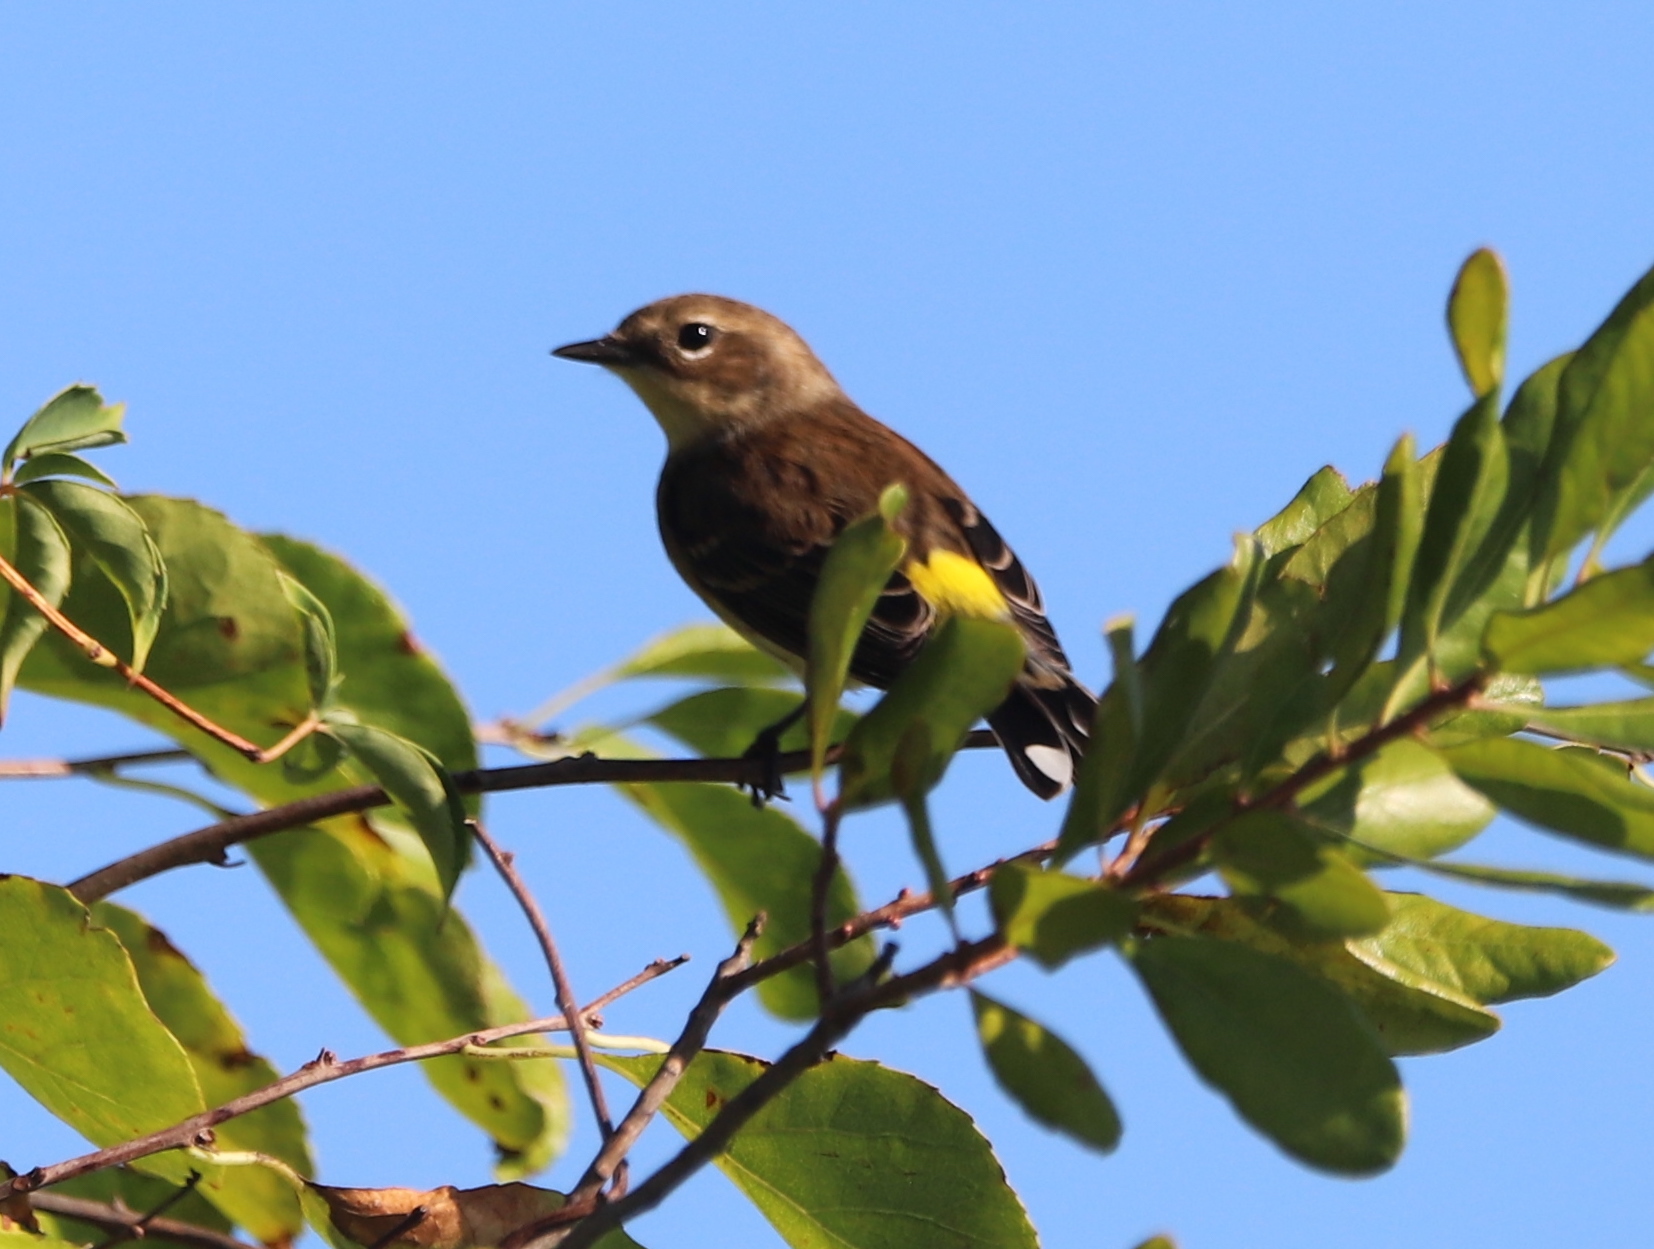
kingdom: Animalia
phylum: Chordata
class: Aves
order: Passeriformes
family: Parulidae
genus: Setophaga
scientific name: Setophaga coronata
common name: Myrtle warbler
